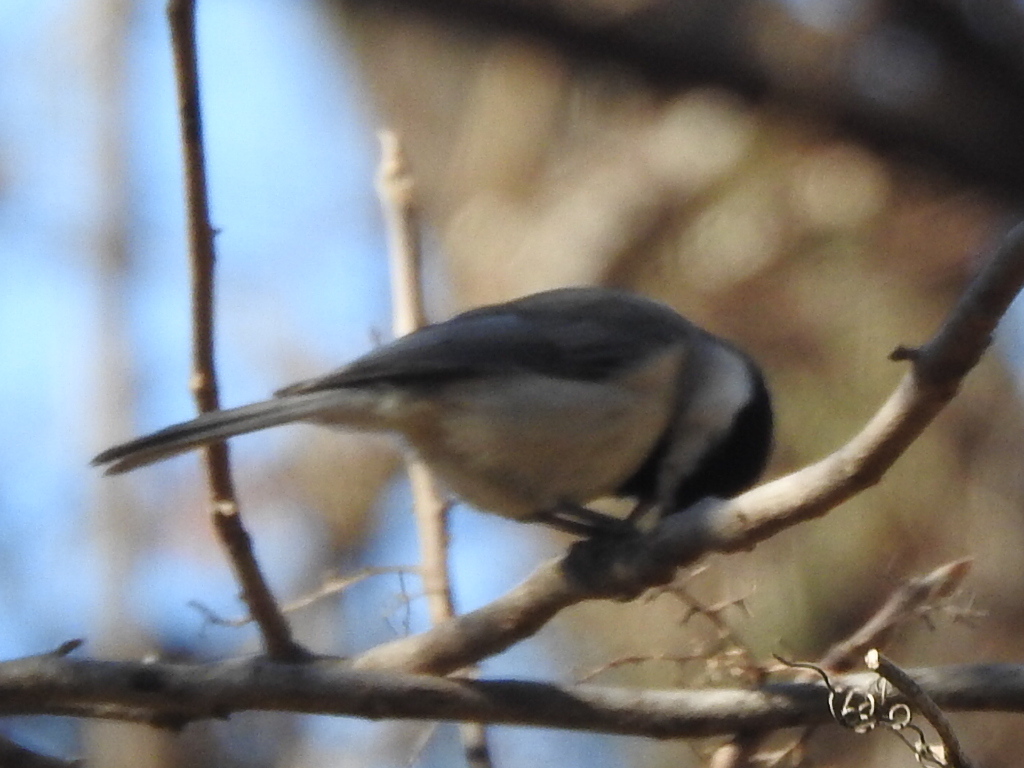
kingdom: Animalia
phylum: Chordata
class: Aves
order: Passeriformes
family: Paridae
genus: Poecile
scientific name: Poecile carolinensis
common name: Carolina chickadee
